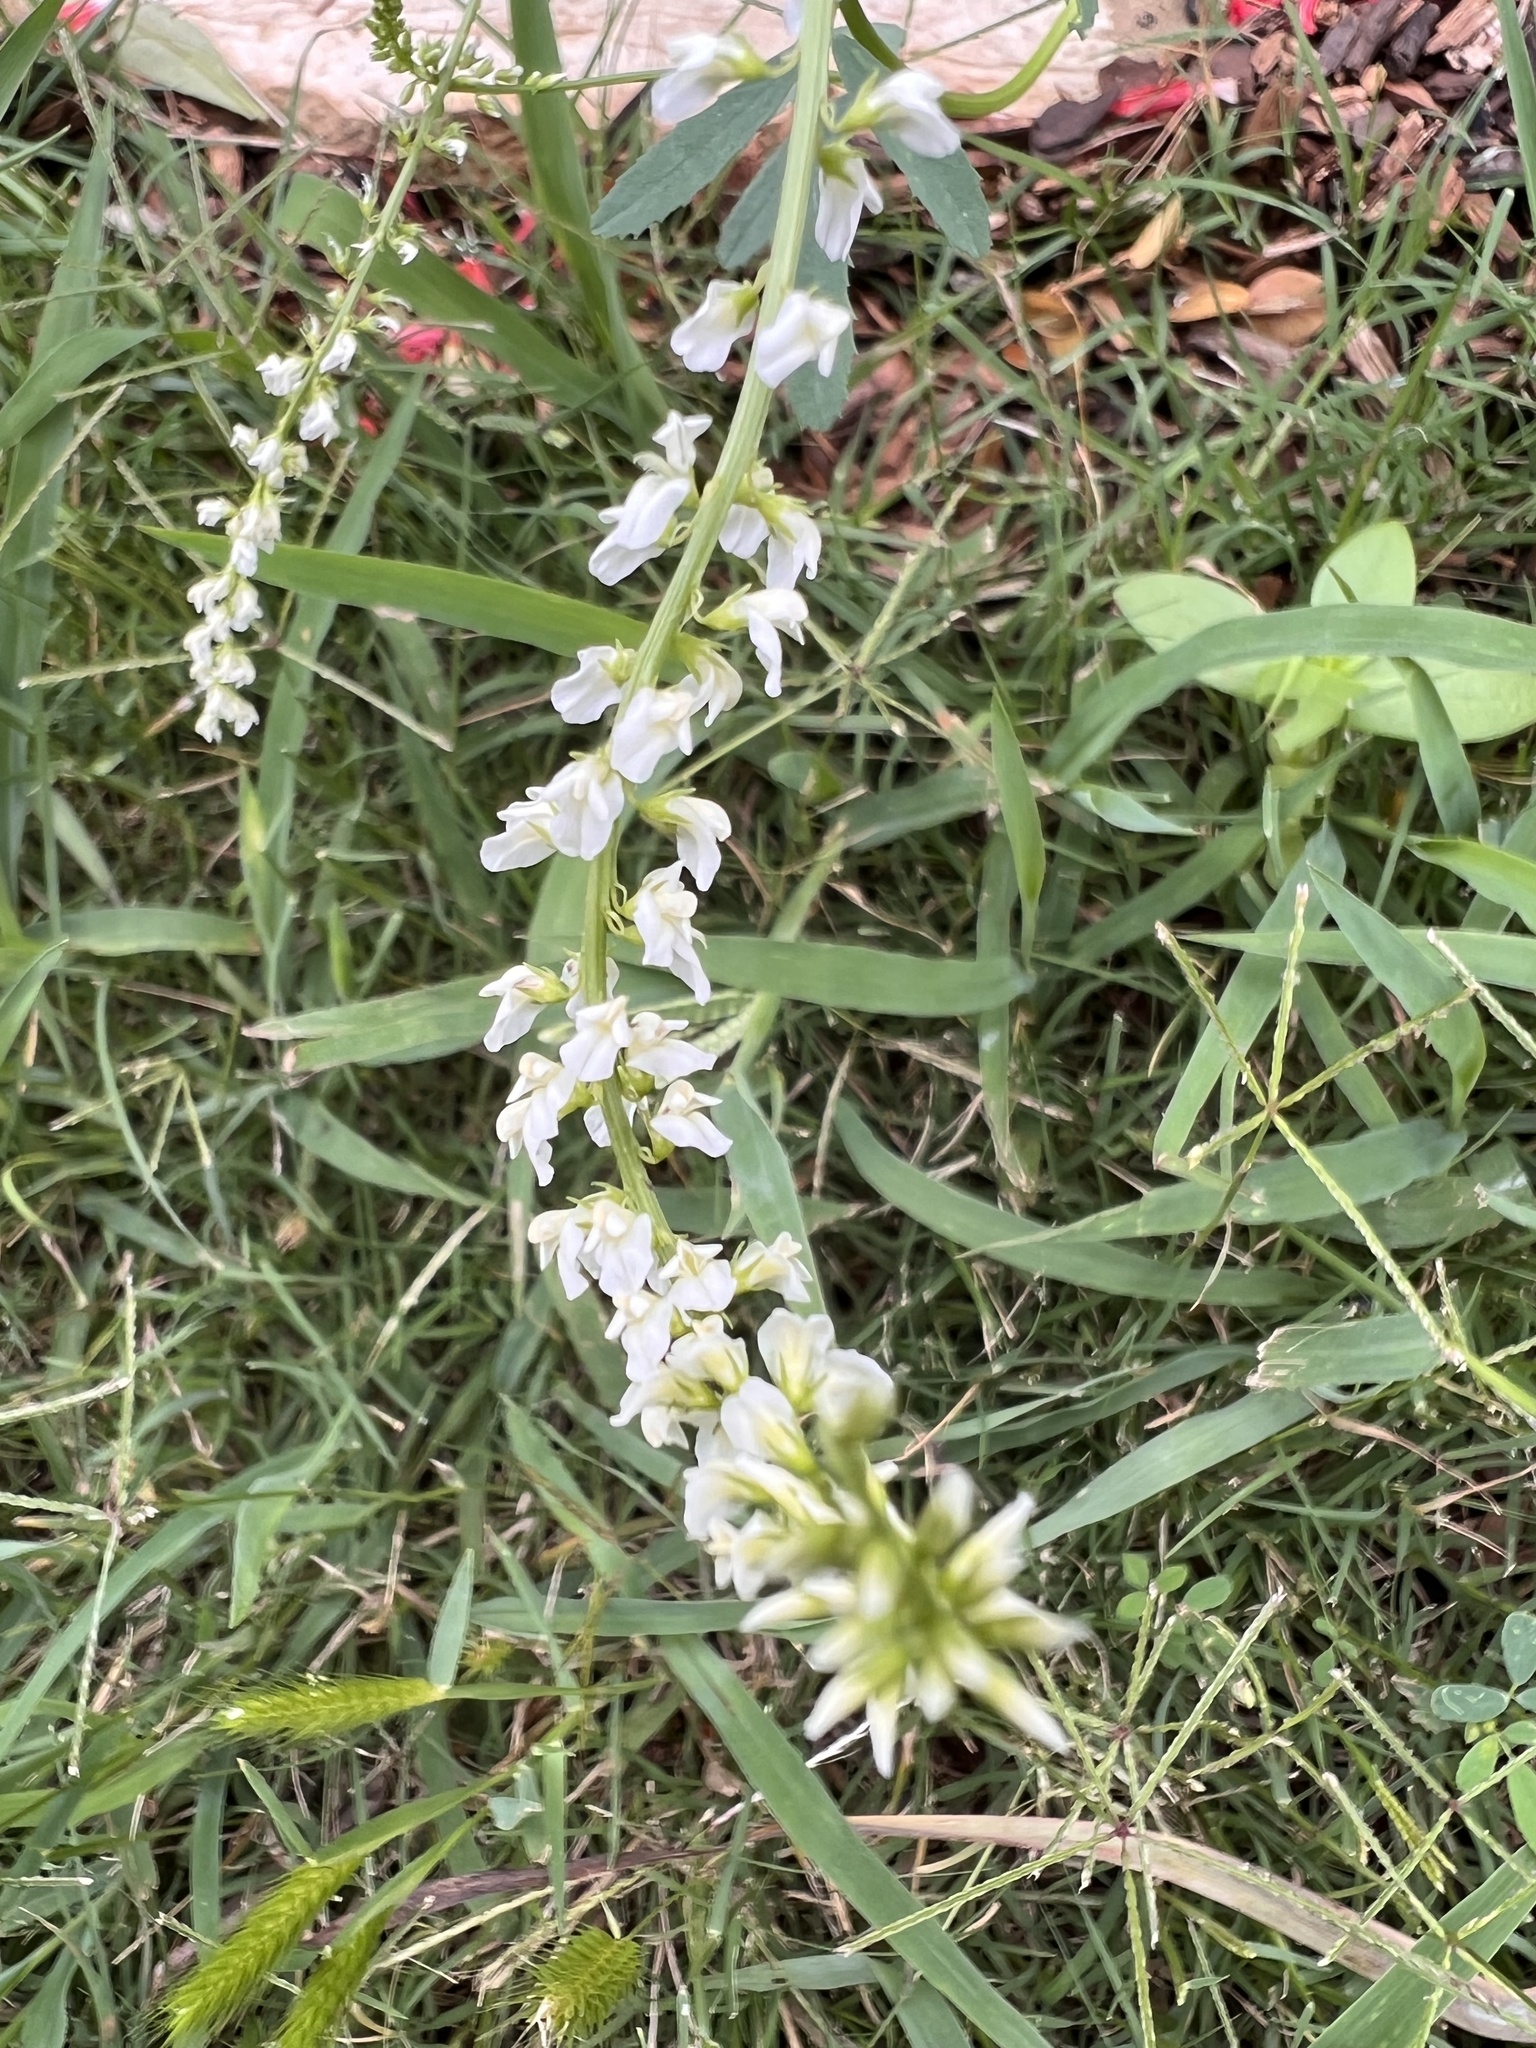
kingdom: Plantae
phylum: Tracheophyta
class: Magnoliopsida
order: Fabales
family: Fabaceae
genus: Melilotus
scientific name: Melilotus albus
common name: White melilot
